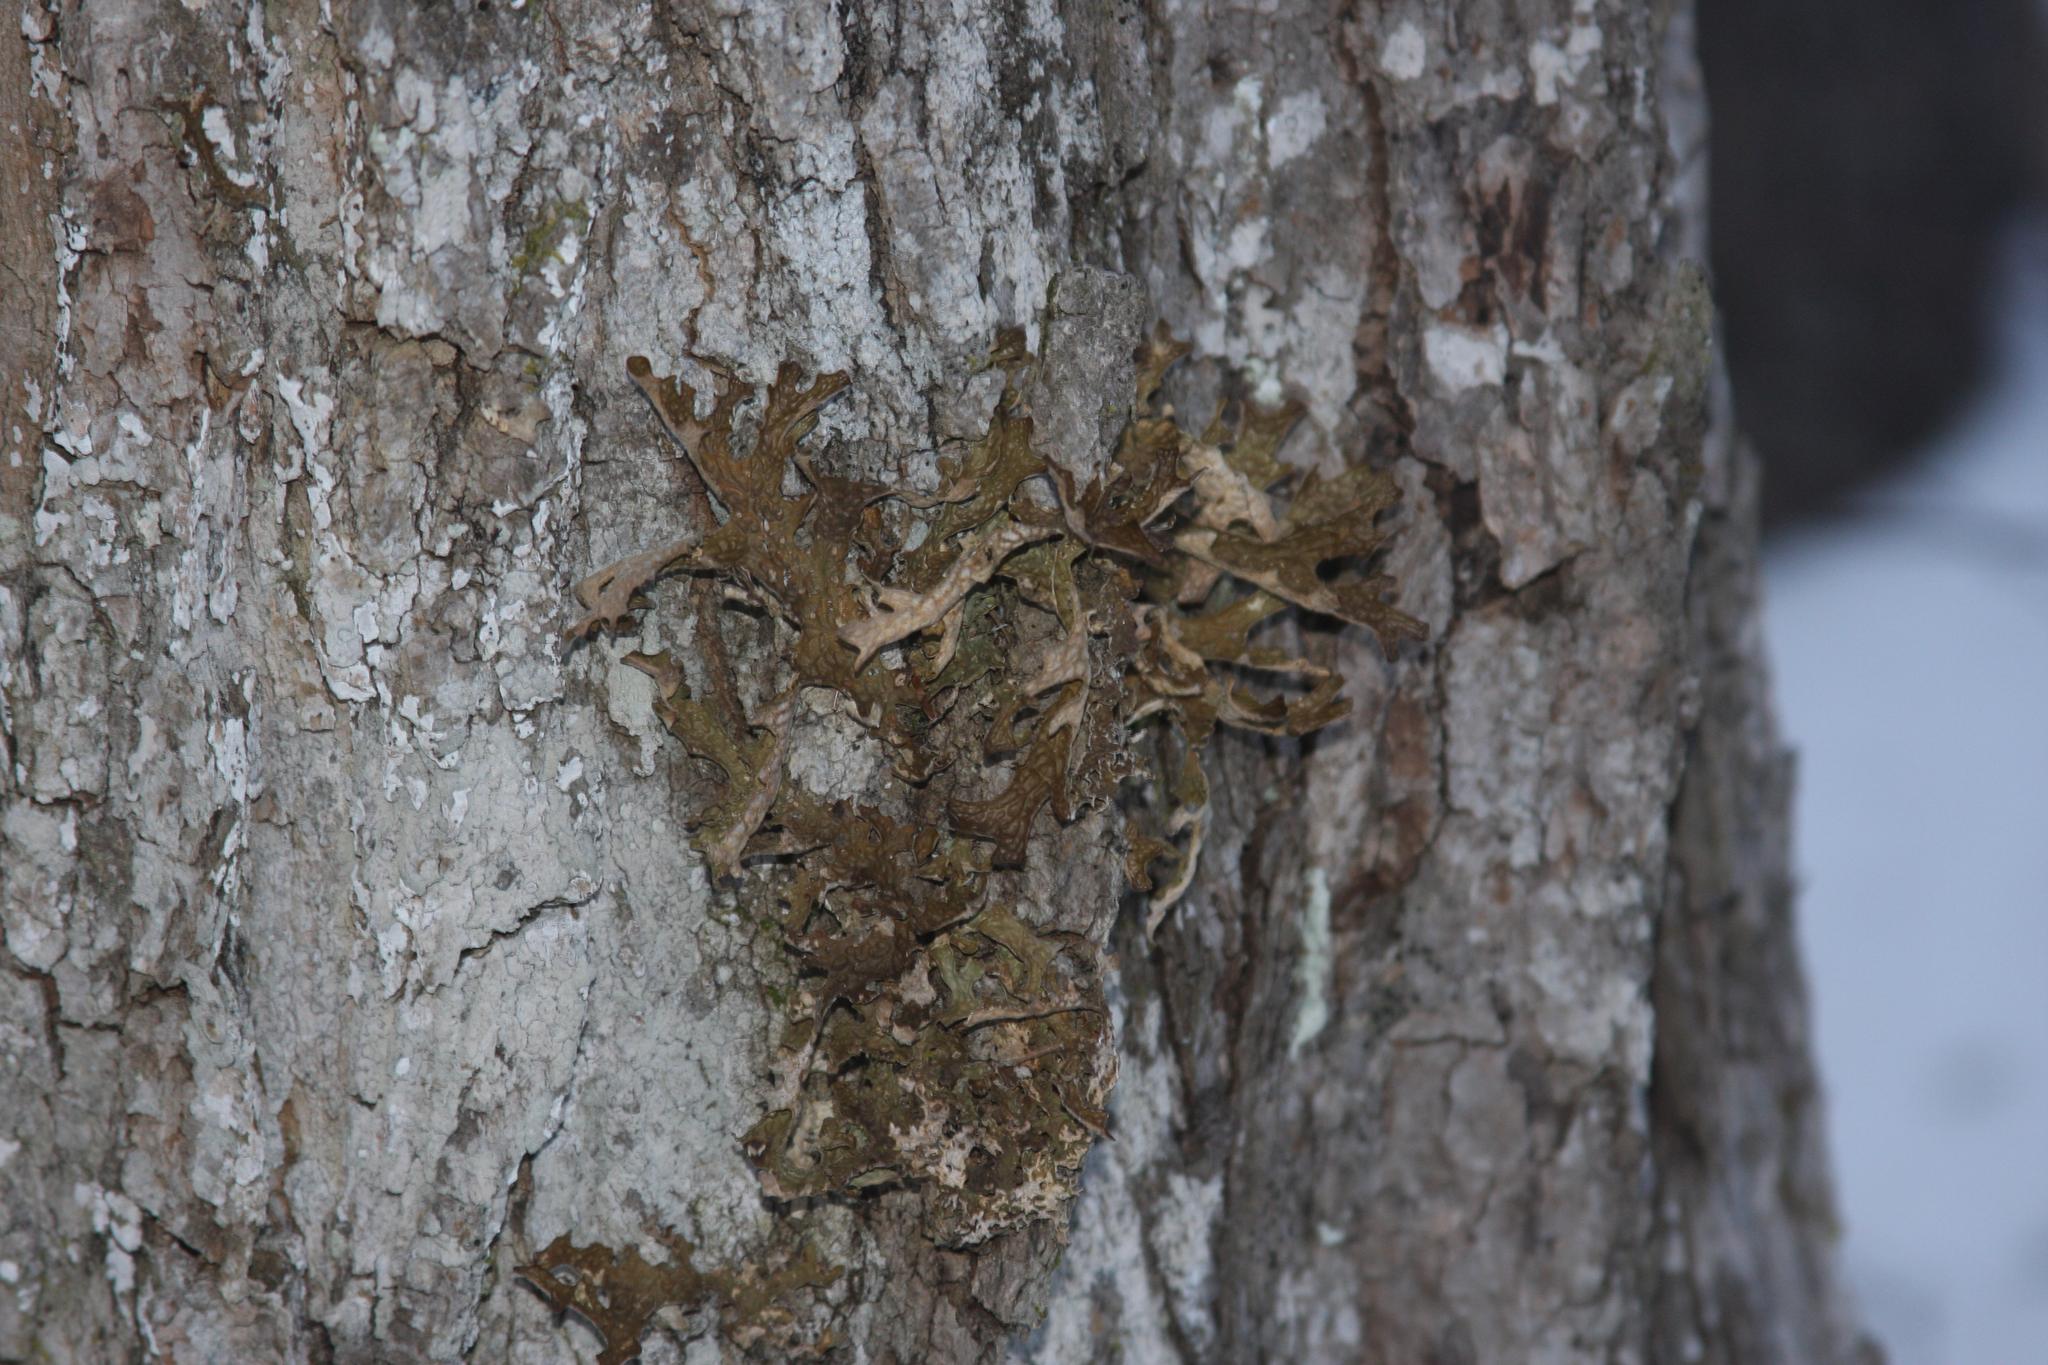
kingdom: Fungi
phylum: Ascomycota
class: Lecanoromycetes
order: Peltigerales
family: Lobariaceae
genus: Lobaria
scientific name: Lobaria pulmonaria
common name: Lungwort
